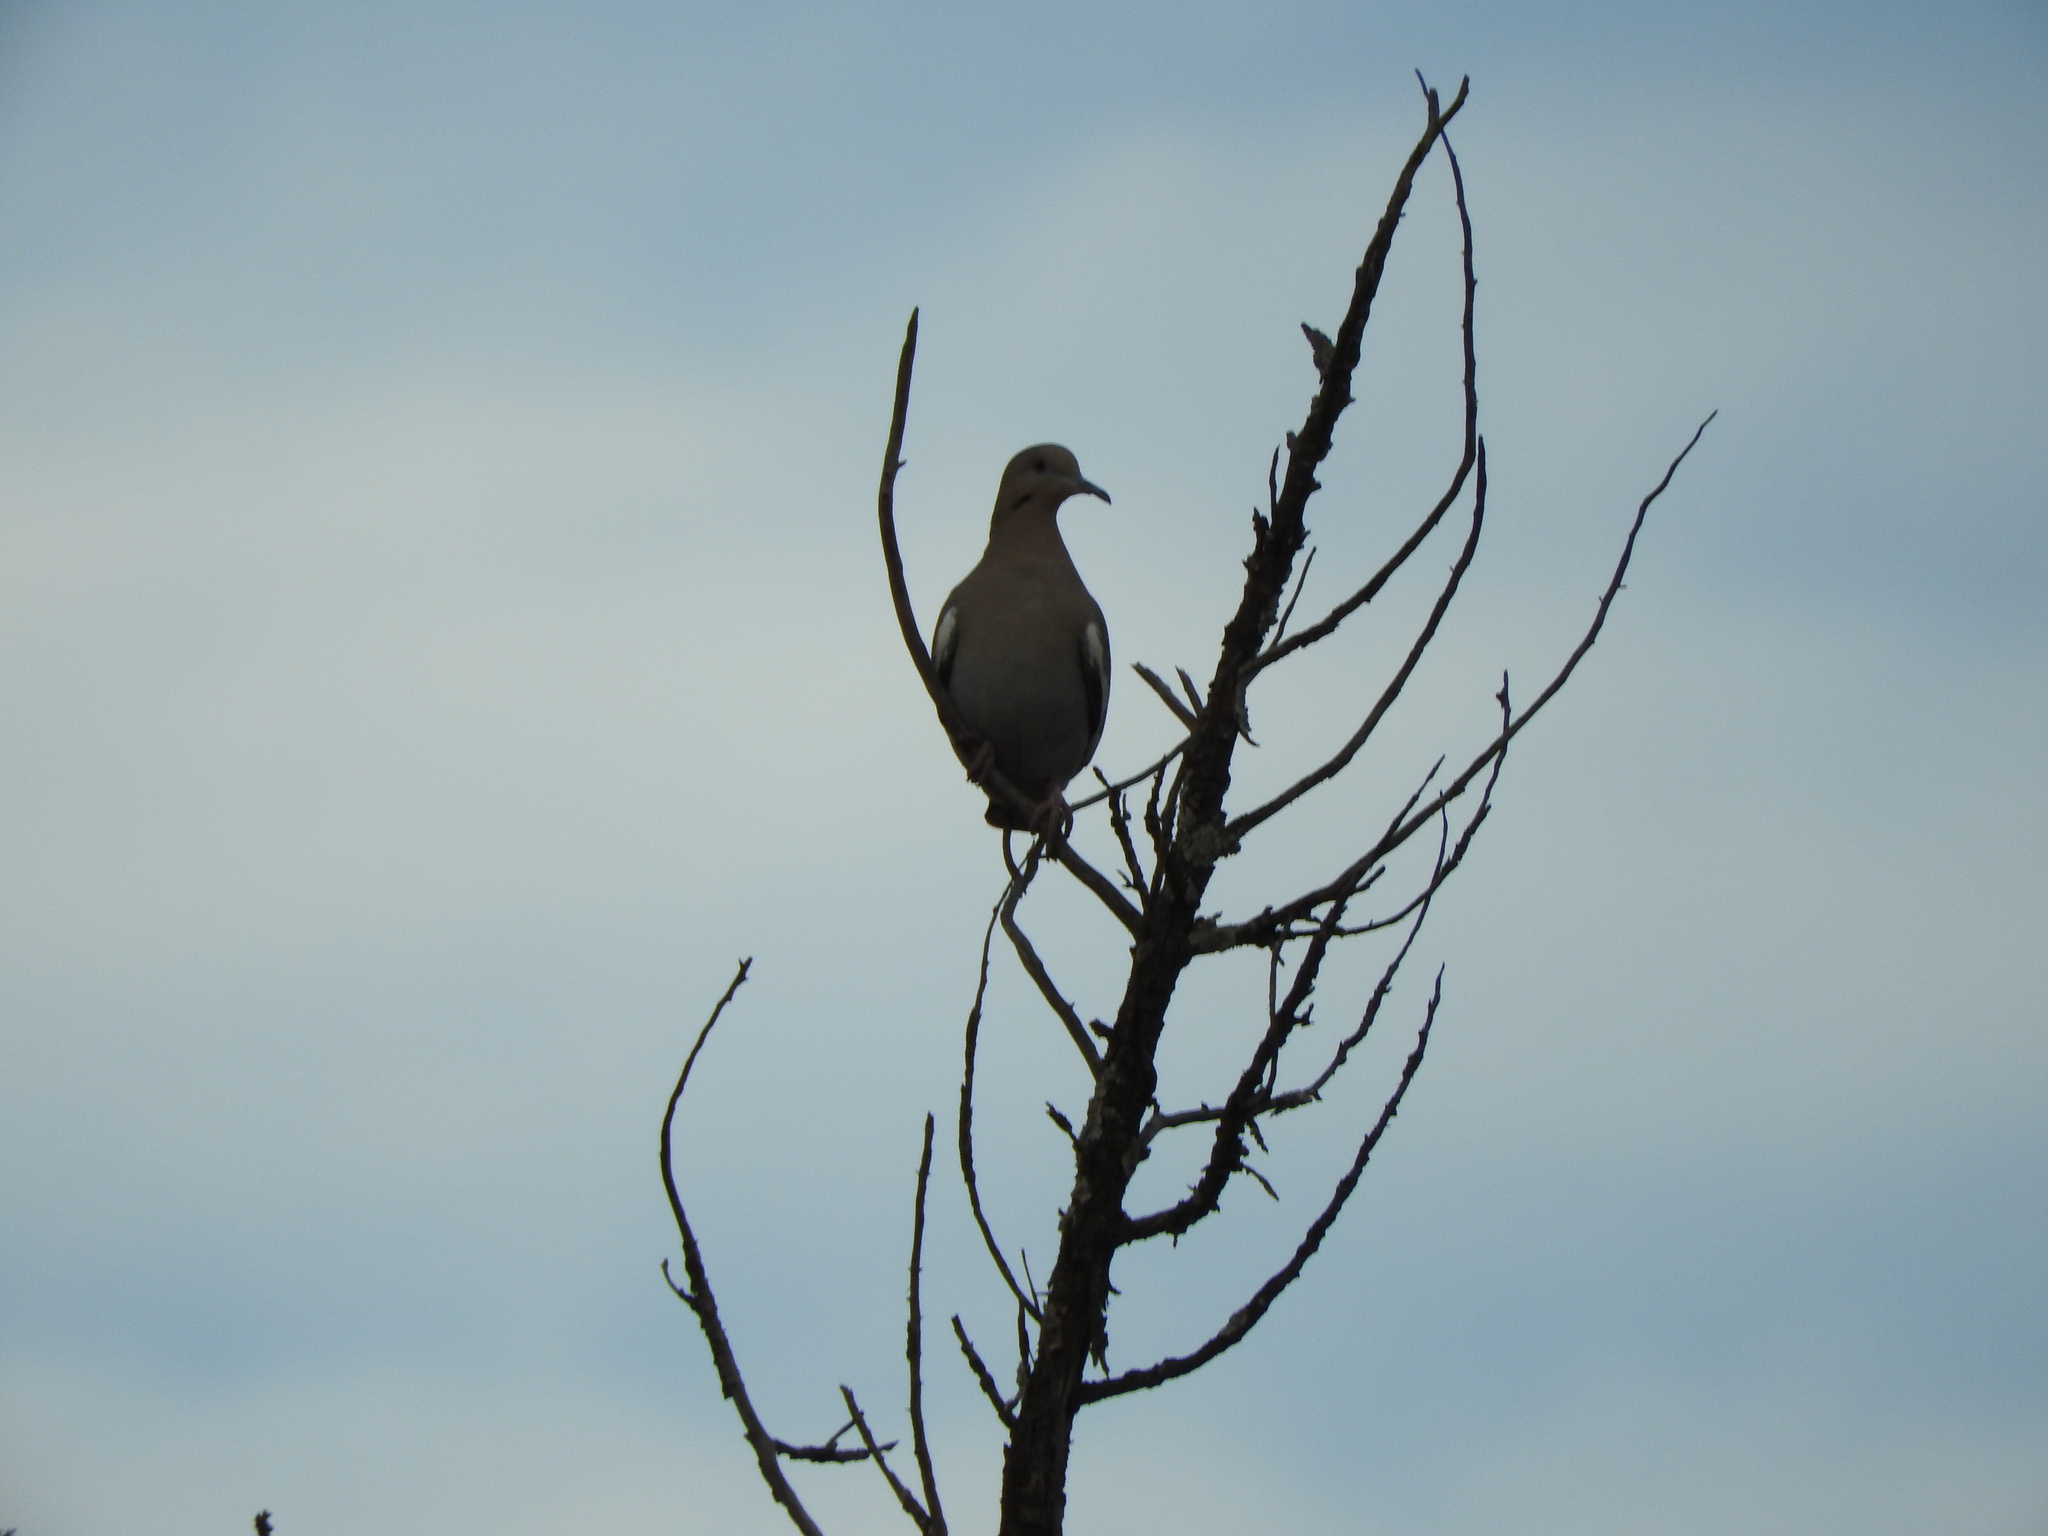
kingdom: Animalia
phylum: Chordata
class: Aves
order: Columbiformes
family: Columbidae
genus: Zenaida
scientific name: Zenaida asiatica
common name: White-winged dove
